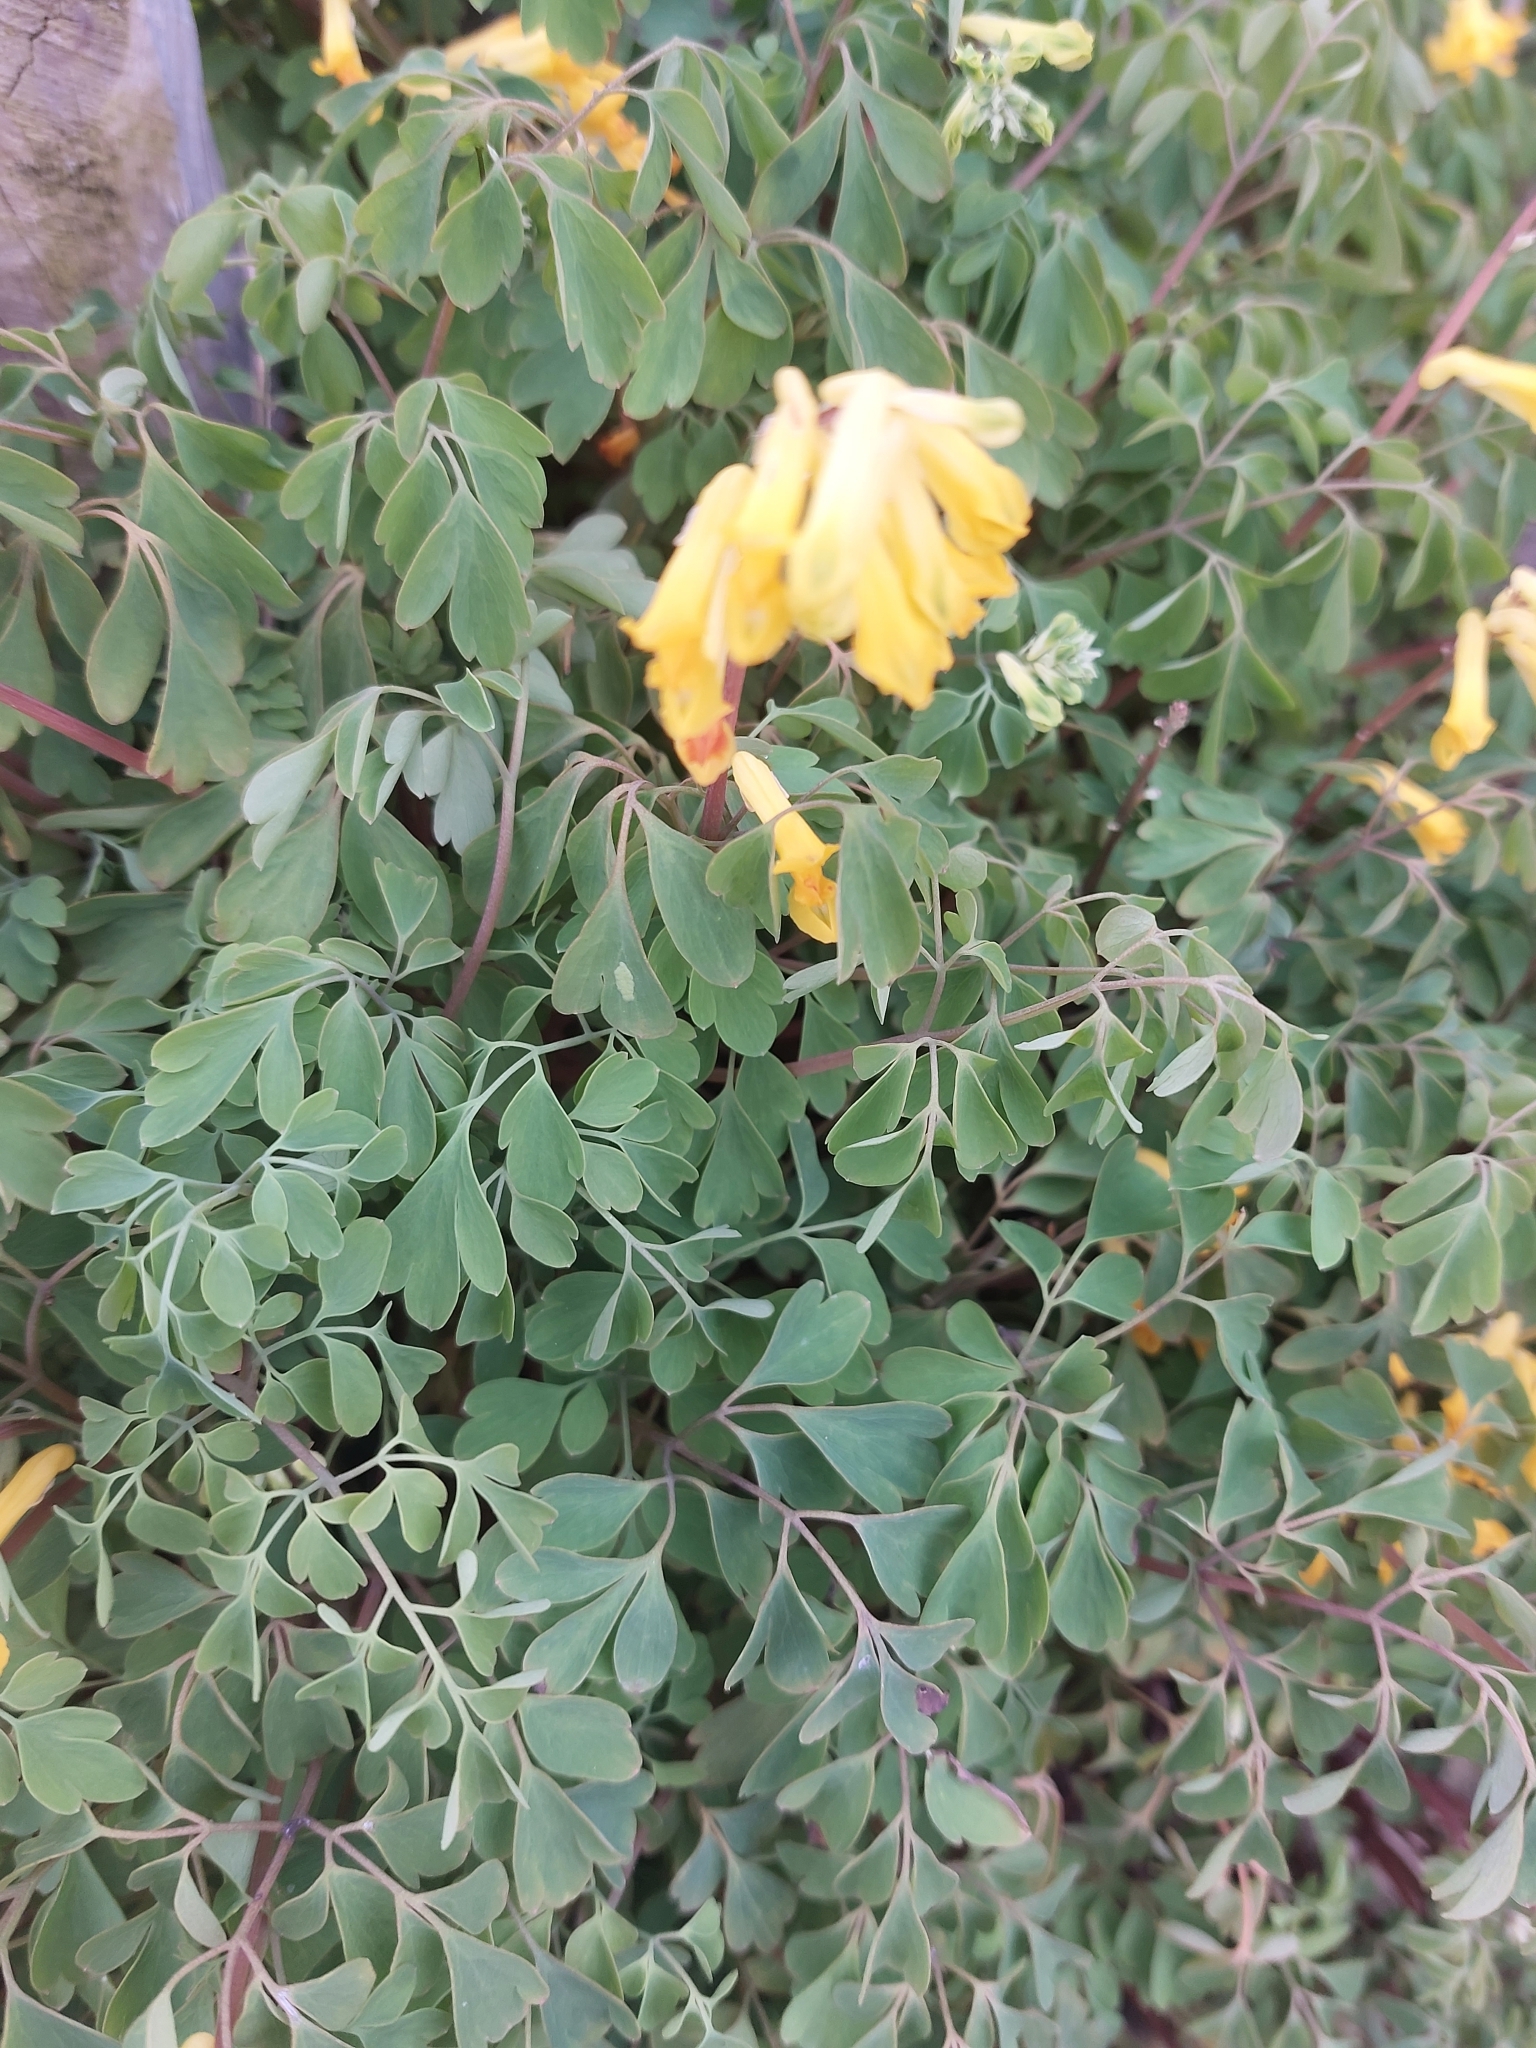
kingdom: Plantae
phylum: Tracheophyta
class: Magnoliopsida
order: Ranunculales
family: Papaveraceae
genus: Pseudofumaria
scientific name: Pseudofumaria lutea
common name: Yellow corydalis
